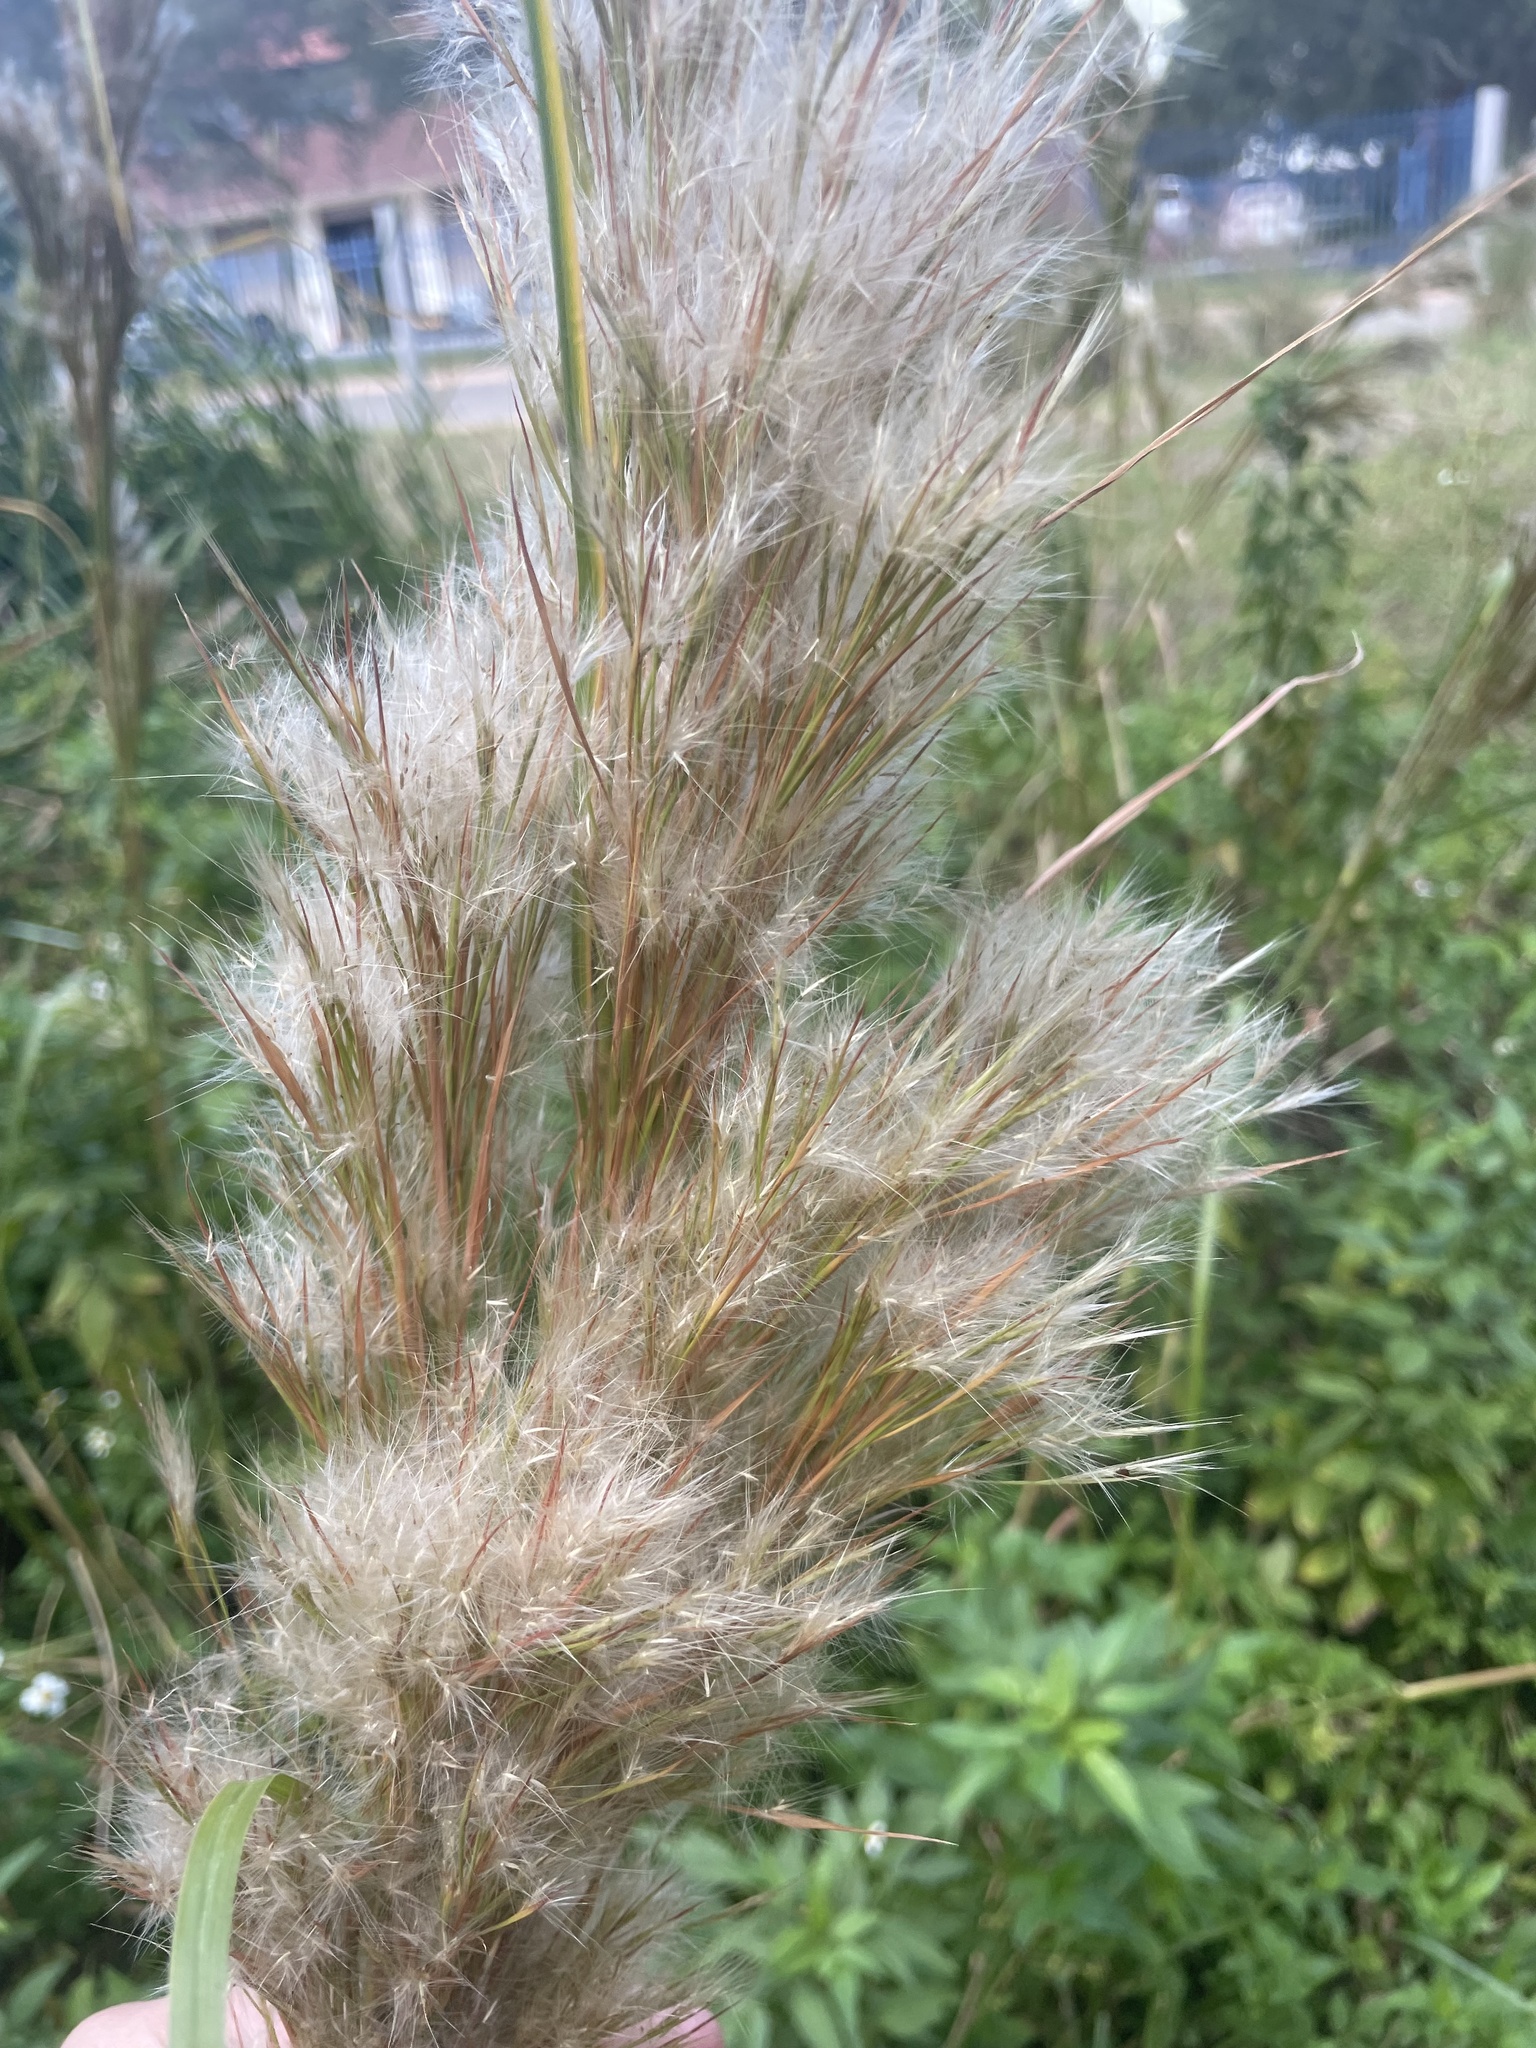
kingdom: Plantae
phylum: Tracheophyta
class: Liliopsida
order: Poales
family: Poaceae
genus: Andropogon
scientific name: Andropogon tenuispatheus
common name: Bushy bluestem
